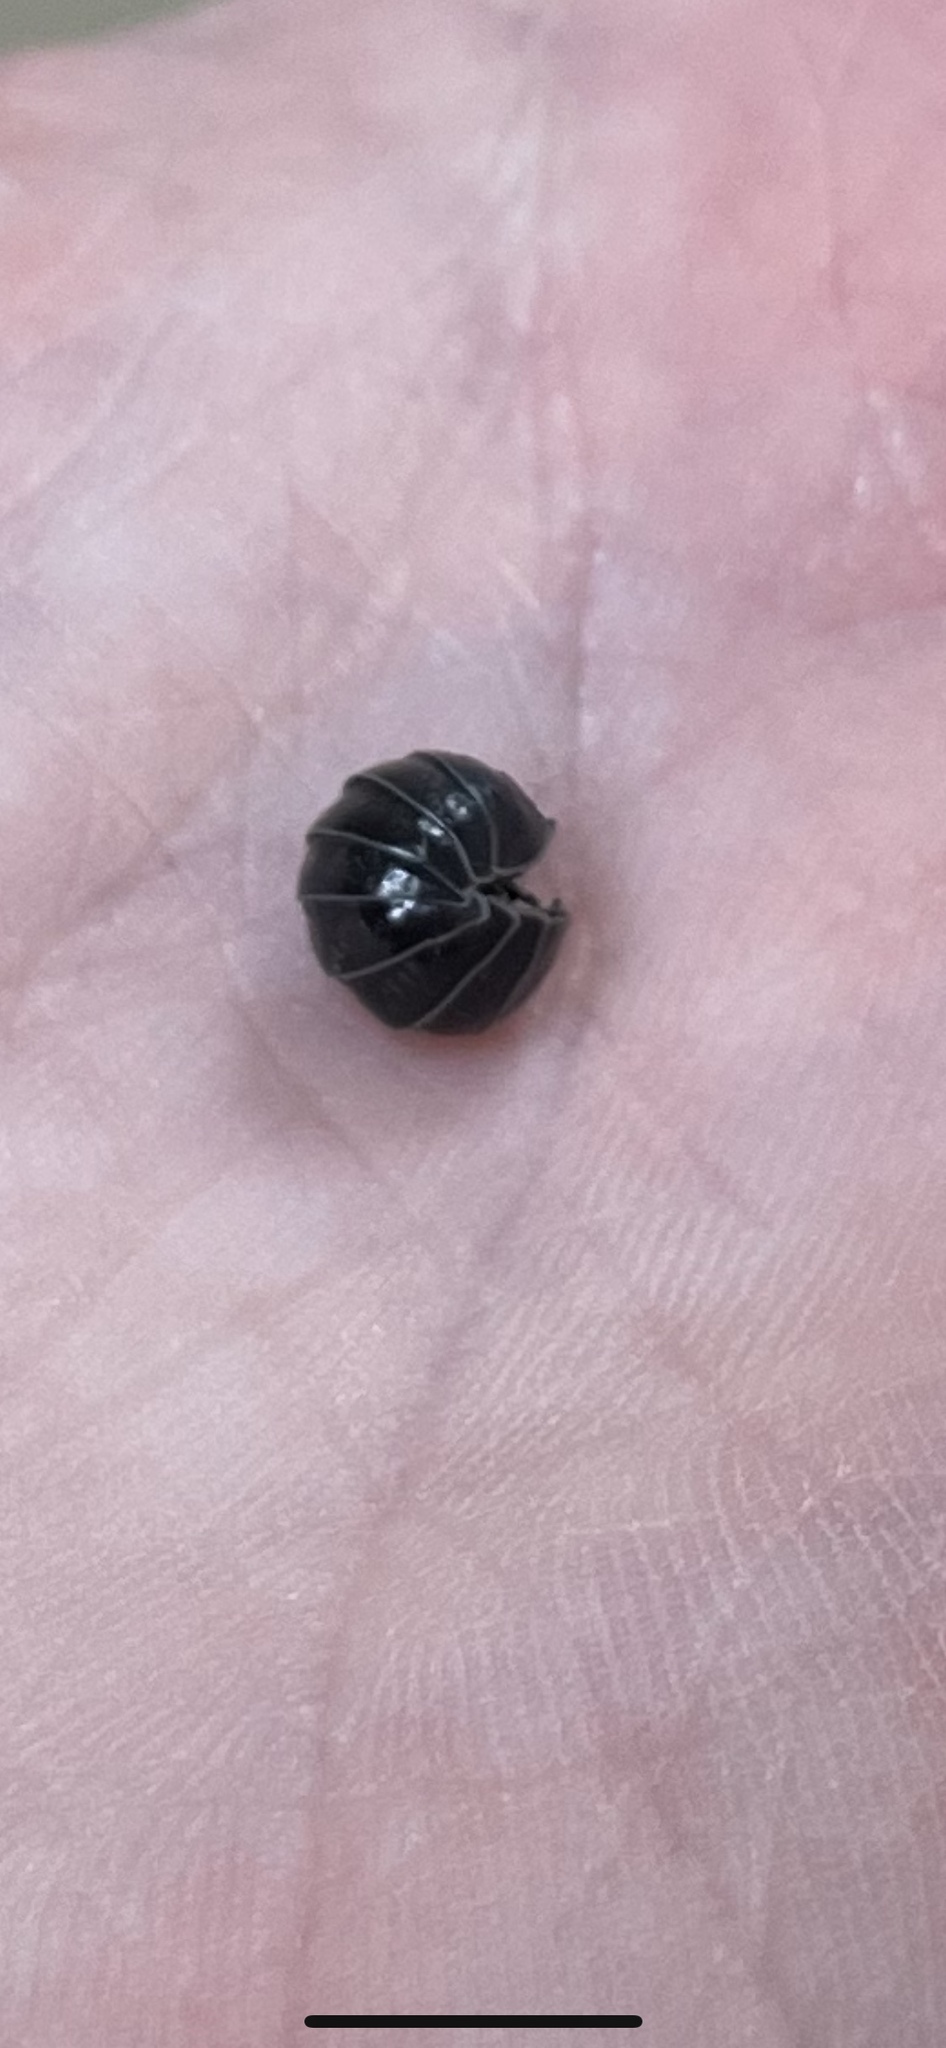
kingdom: Animalia
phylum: Arthropoda
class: Malacostraca
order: Isopoda
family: Armadillidiidae
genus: Armadillidium
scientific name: Armadillidium vulgare
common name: Common pill woodlouse
